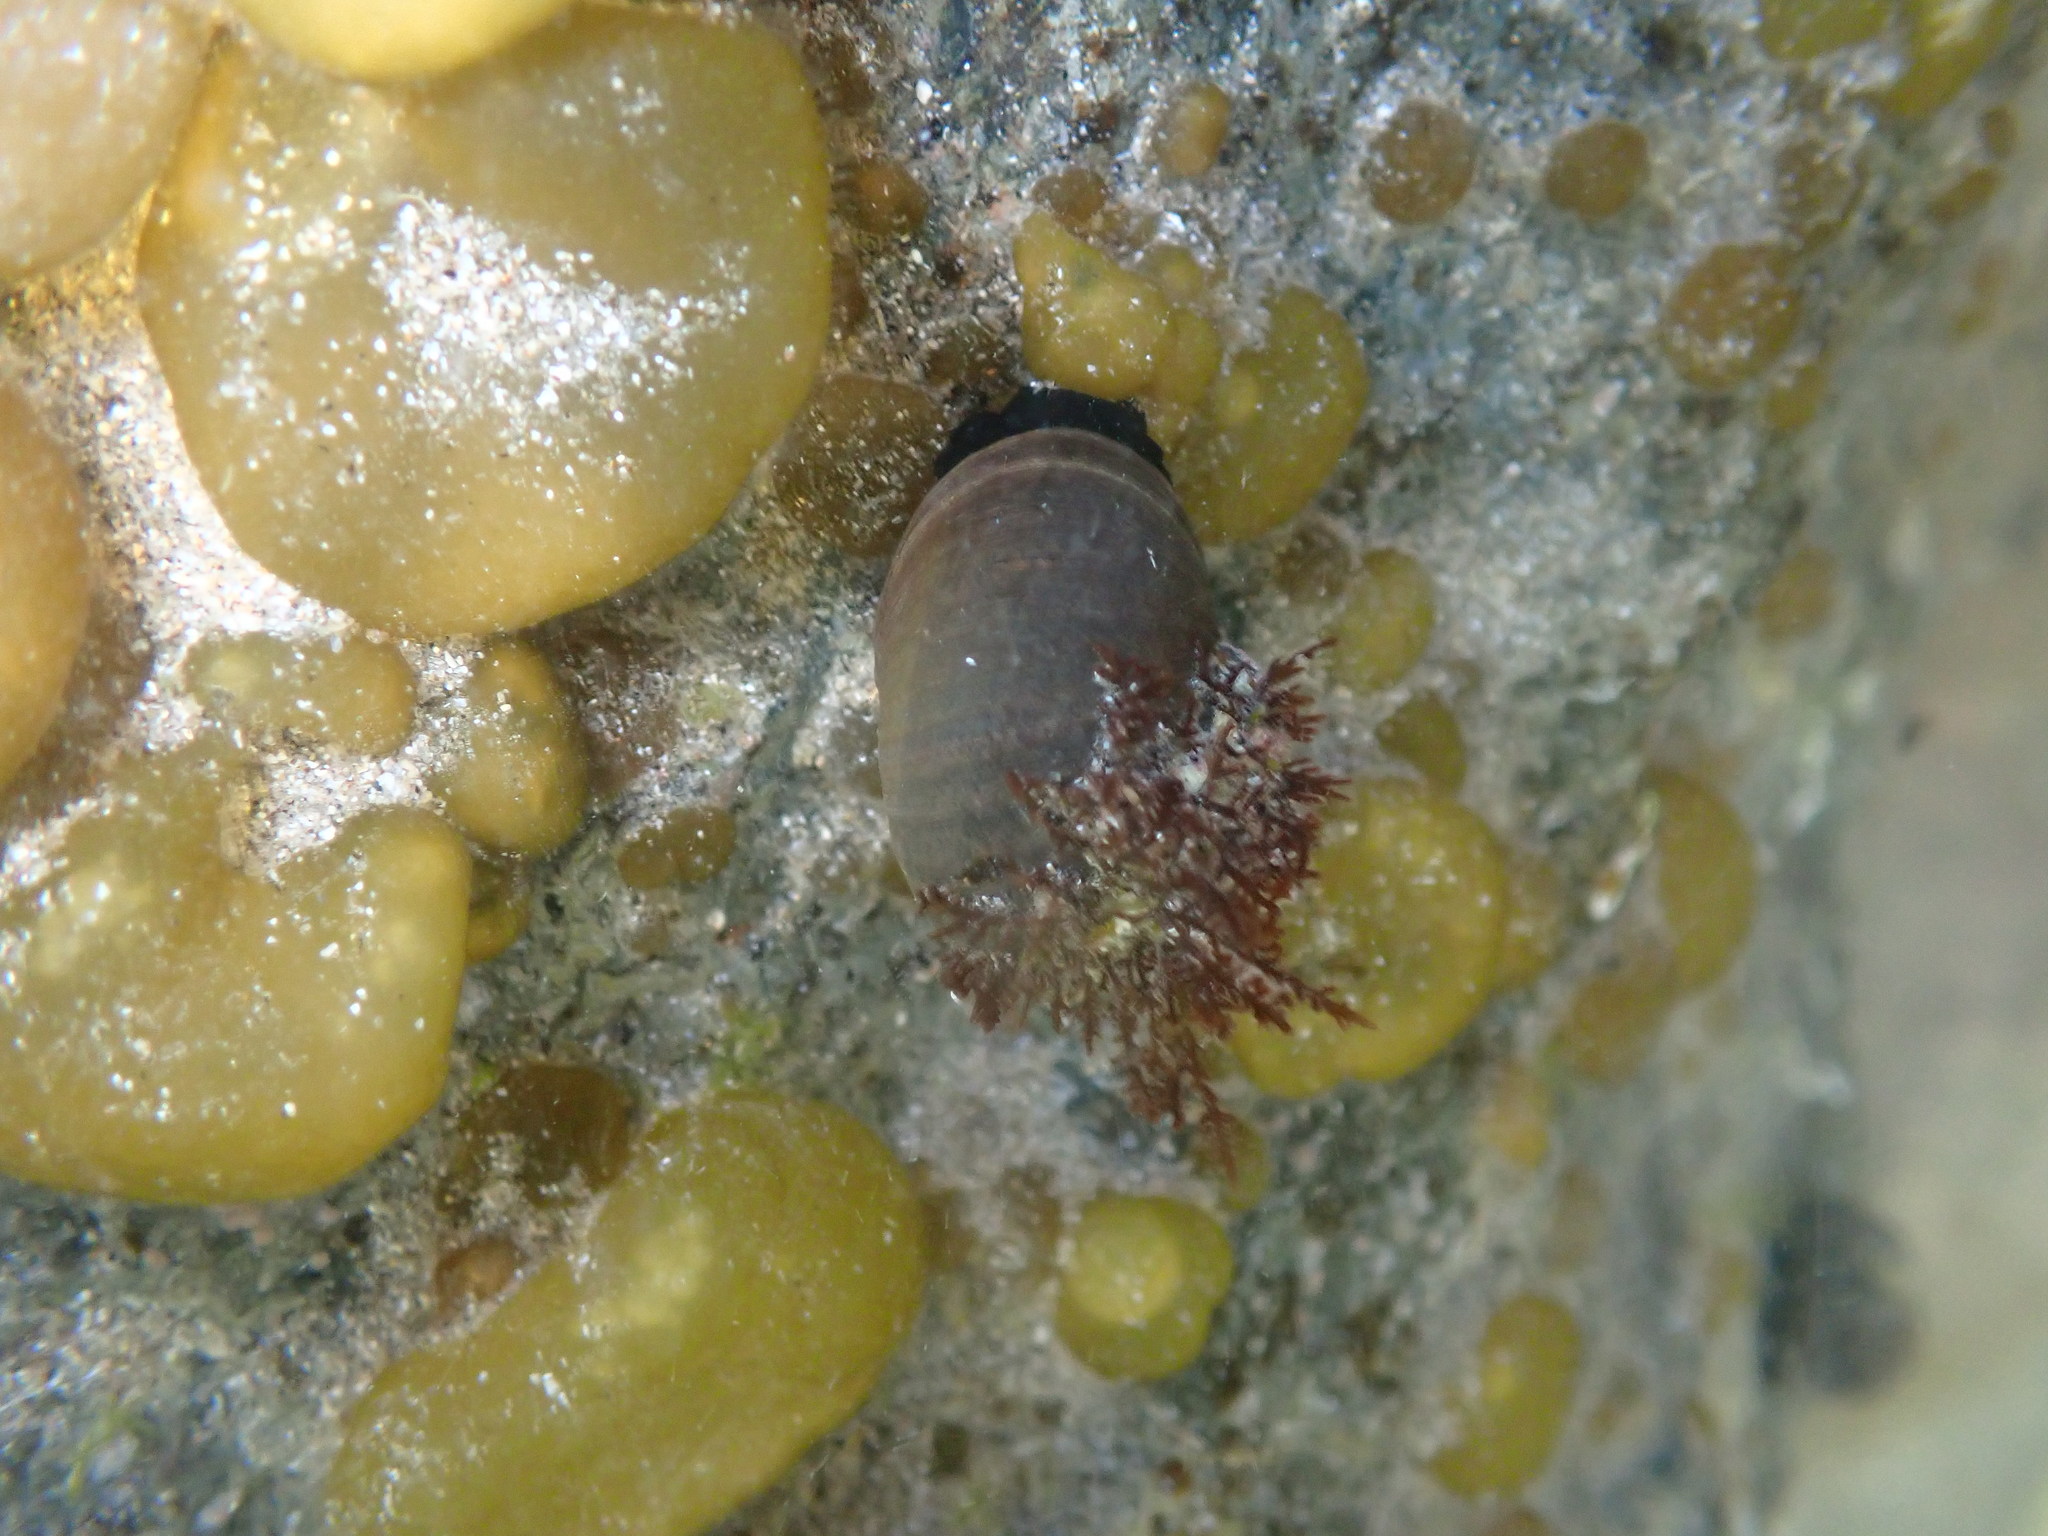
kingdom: Animalia
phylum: Mollusca
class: Gastropoda
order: Trochida
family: Turbinidae
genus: Lunella
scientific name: Lunella smaragda
